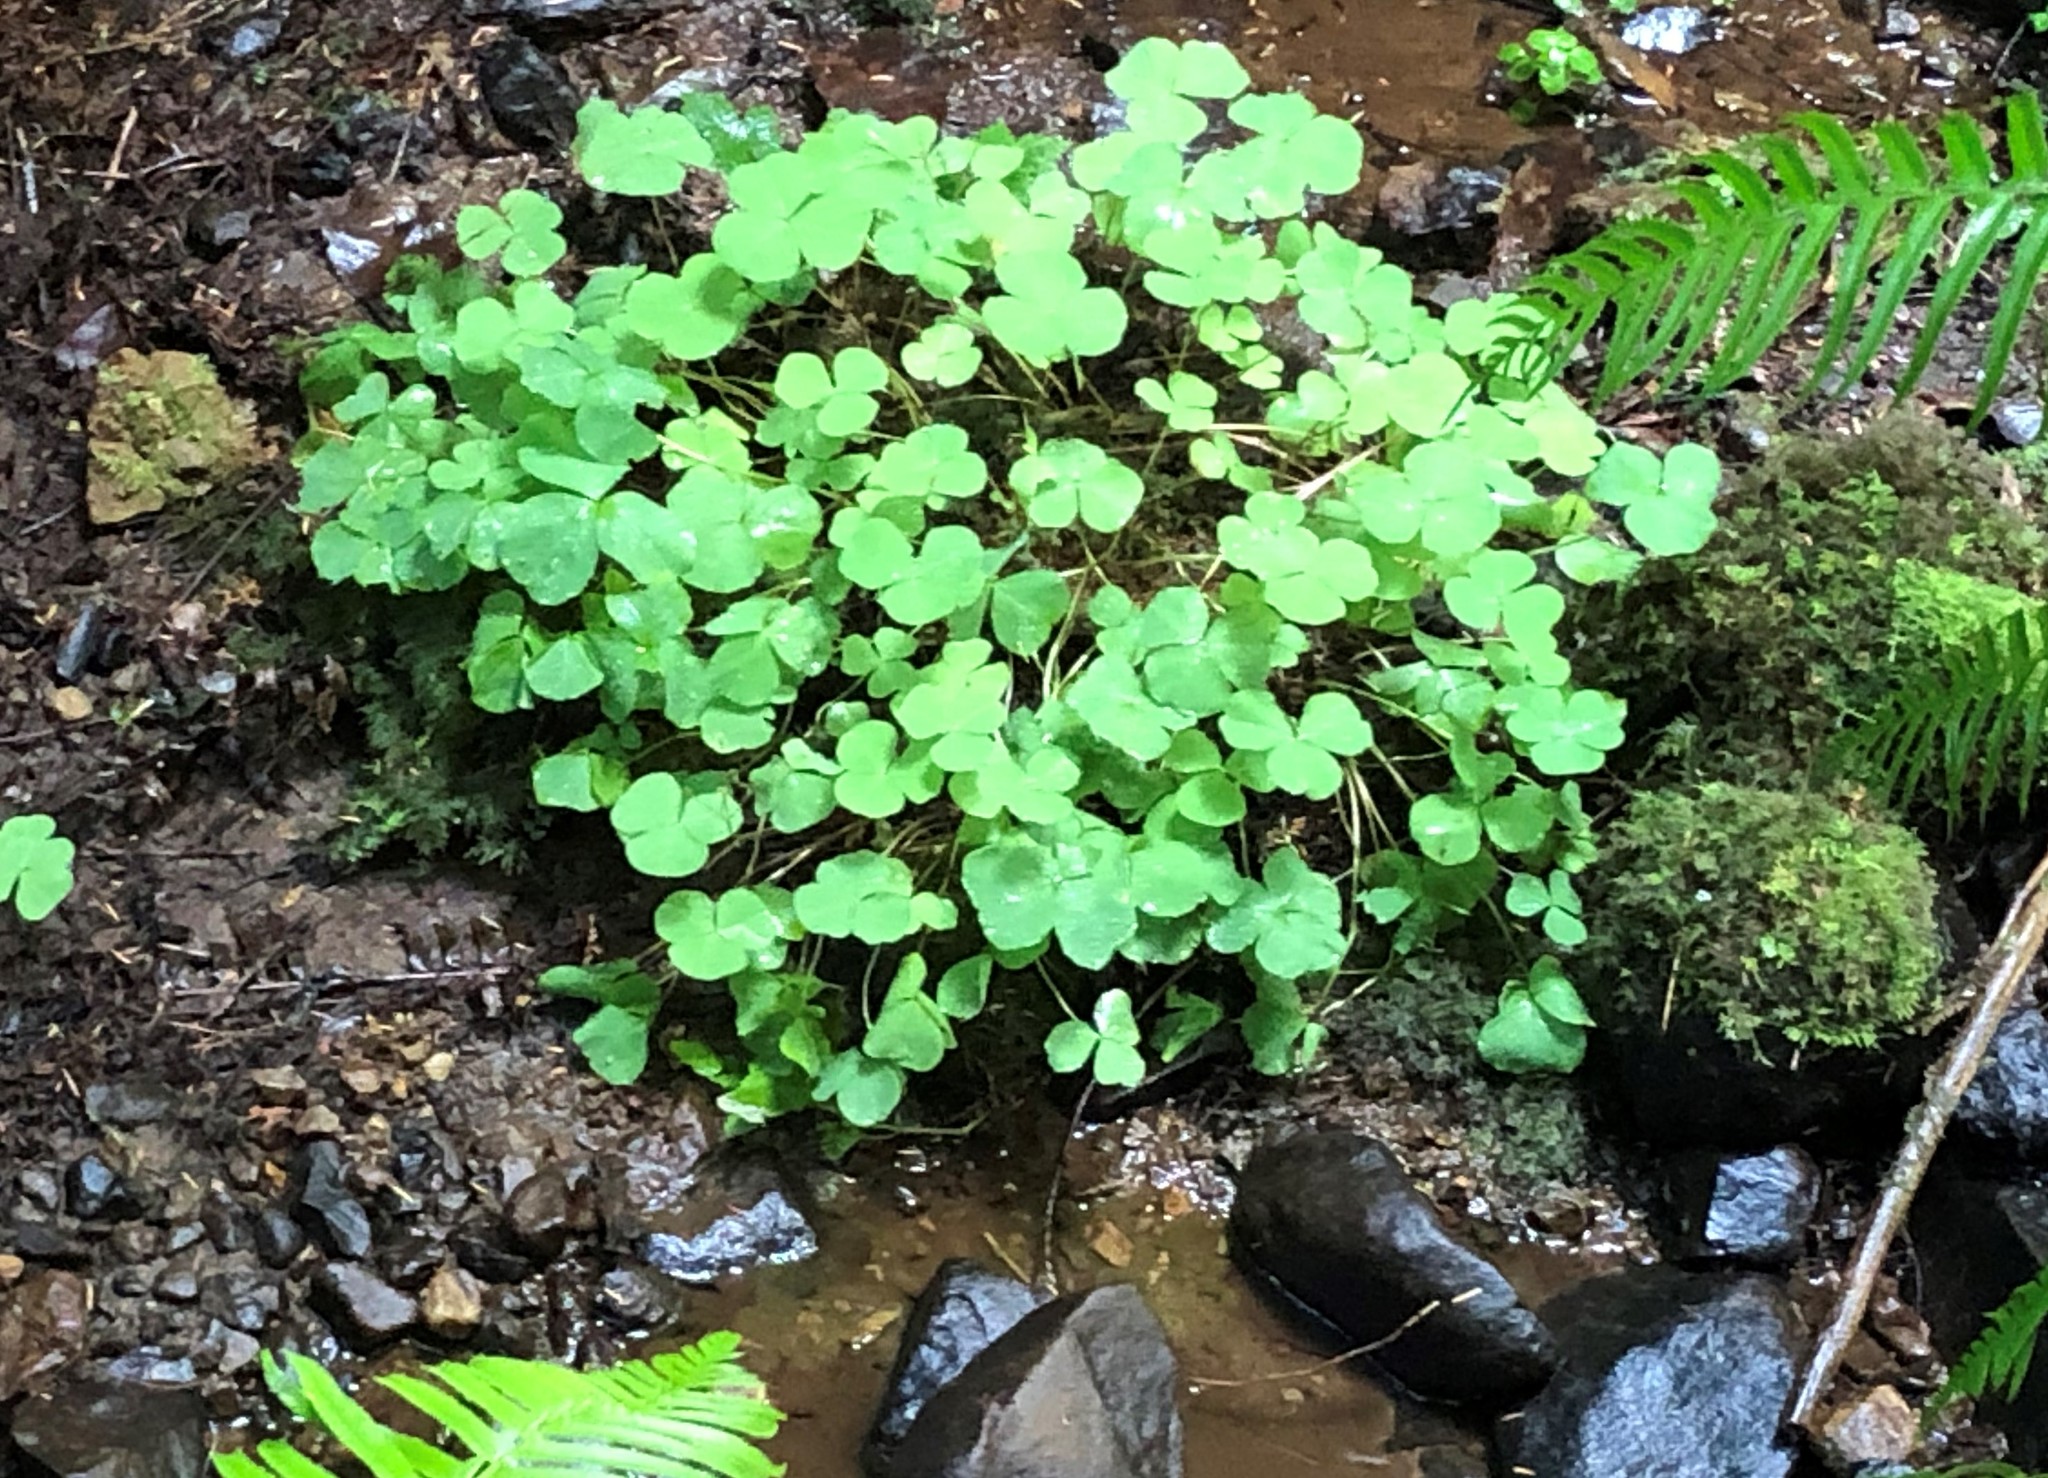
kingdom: Plantae
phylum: Tracheophyta
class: Magnoliopsida
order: Oxalidales
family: Oxalidaceae
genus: Oxalis
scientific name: Oxalis trilliifolia
